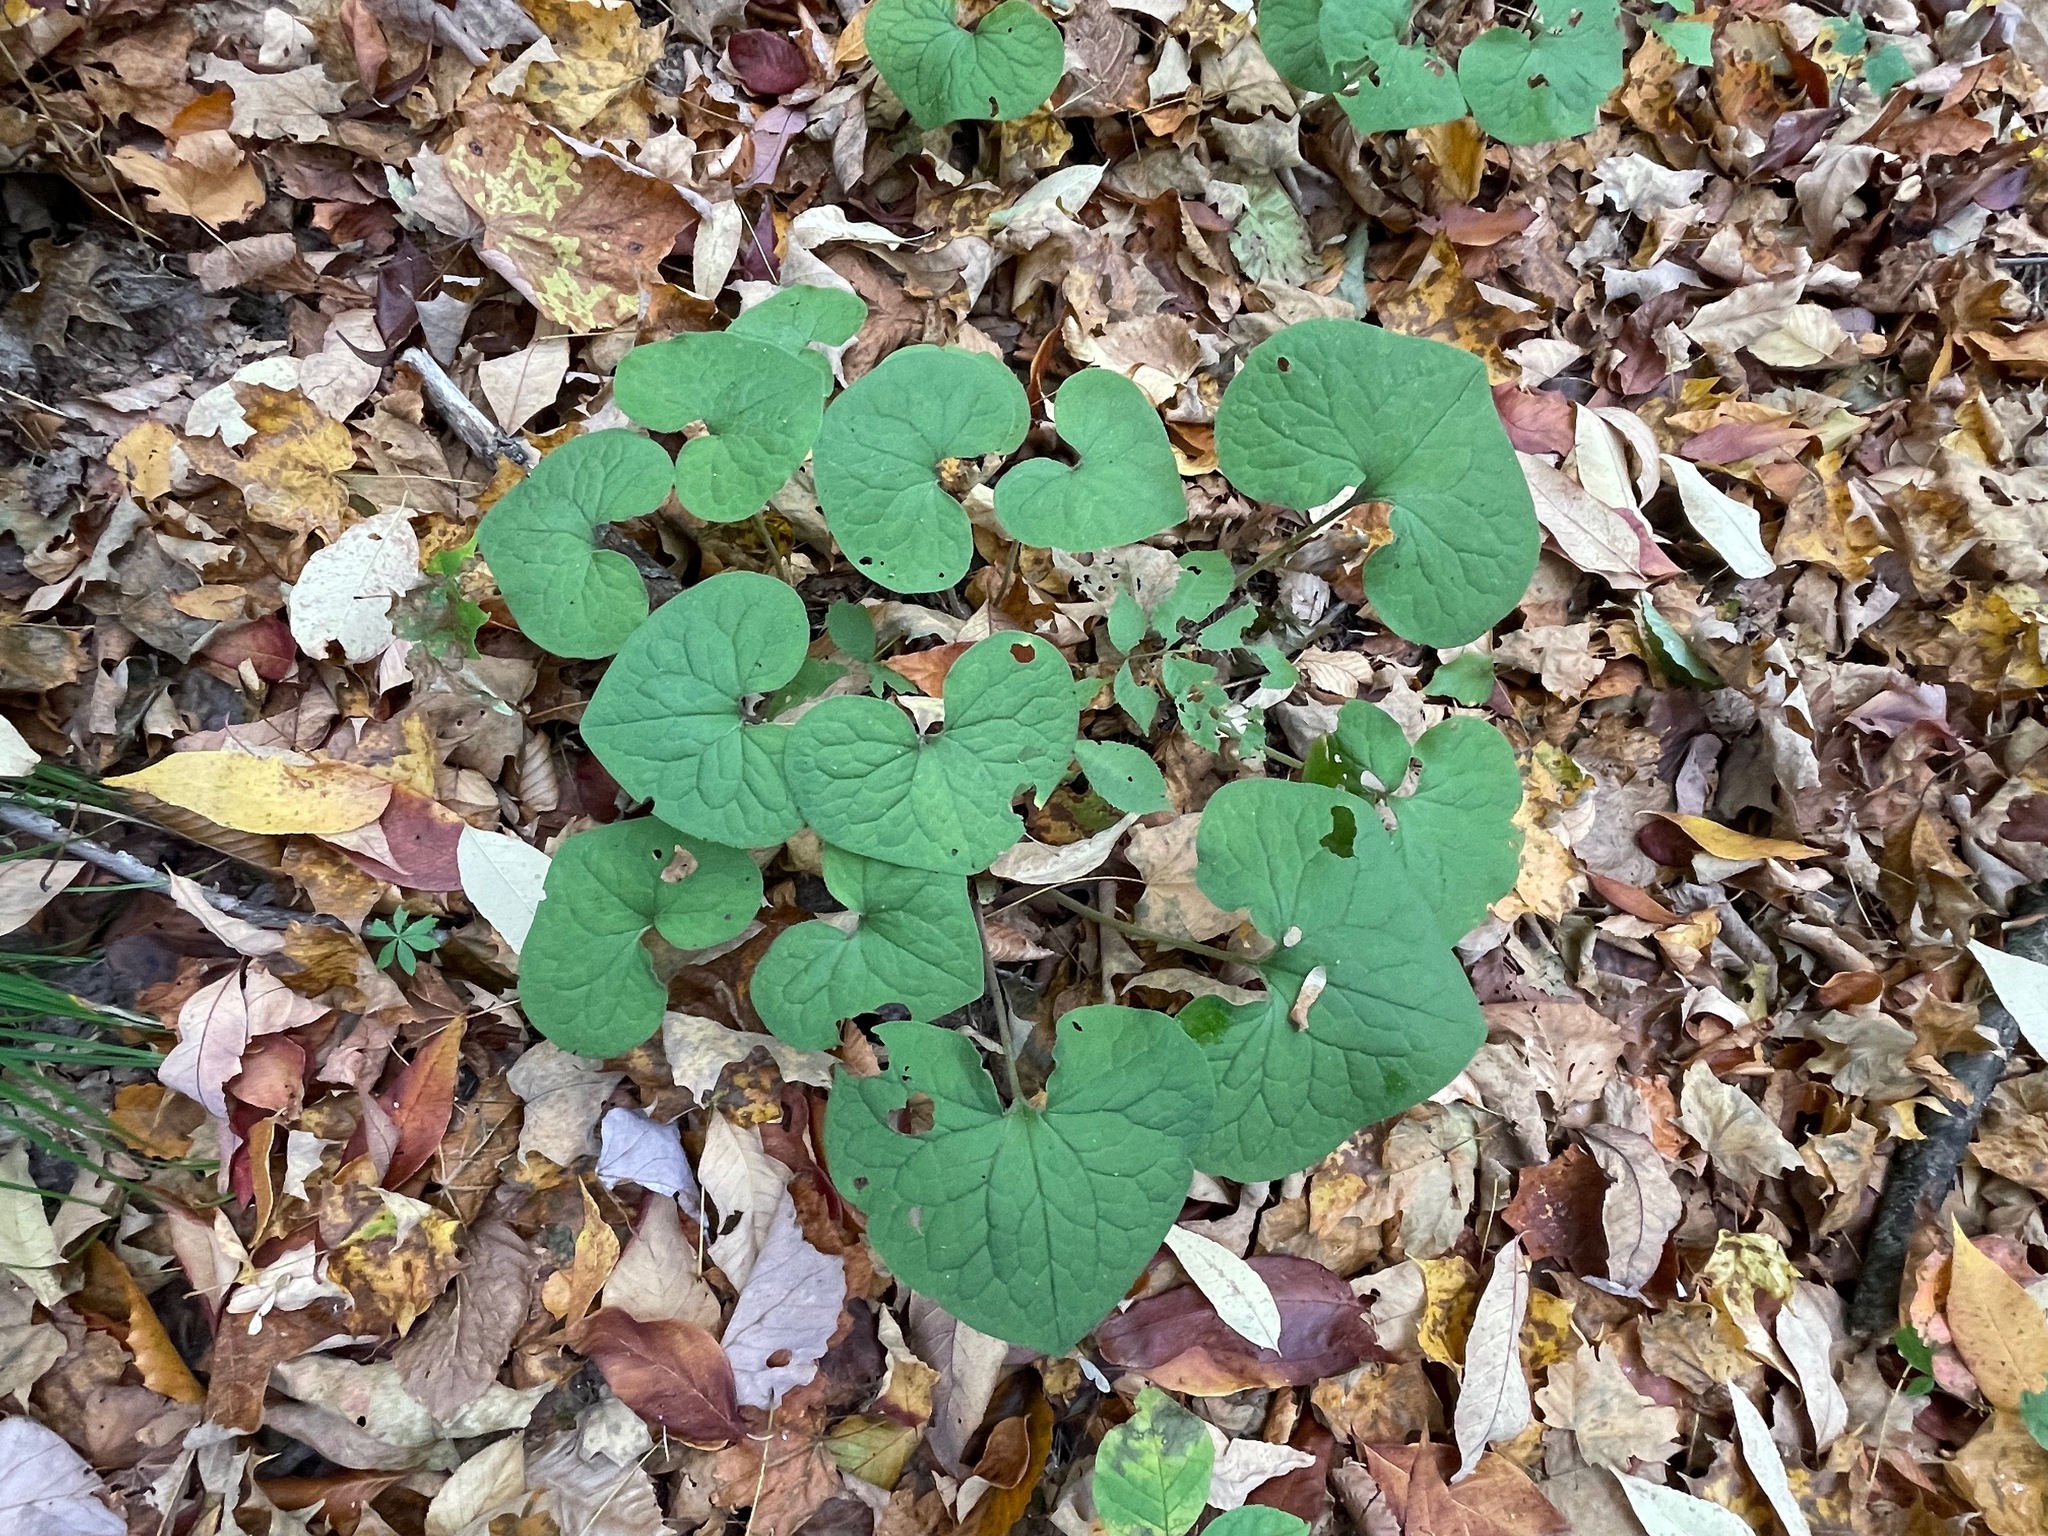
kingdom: Plantae
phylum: Tracheophyta
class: Magnoliopsida
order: Piperales
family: Aristolochiaceae
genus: Asarum
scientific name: Asarum canadense
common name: Wild ginger
